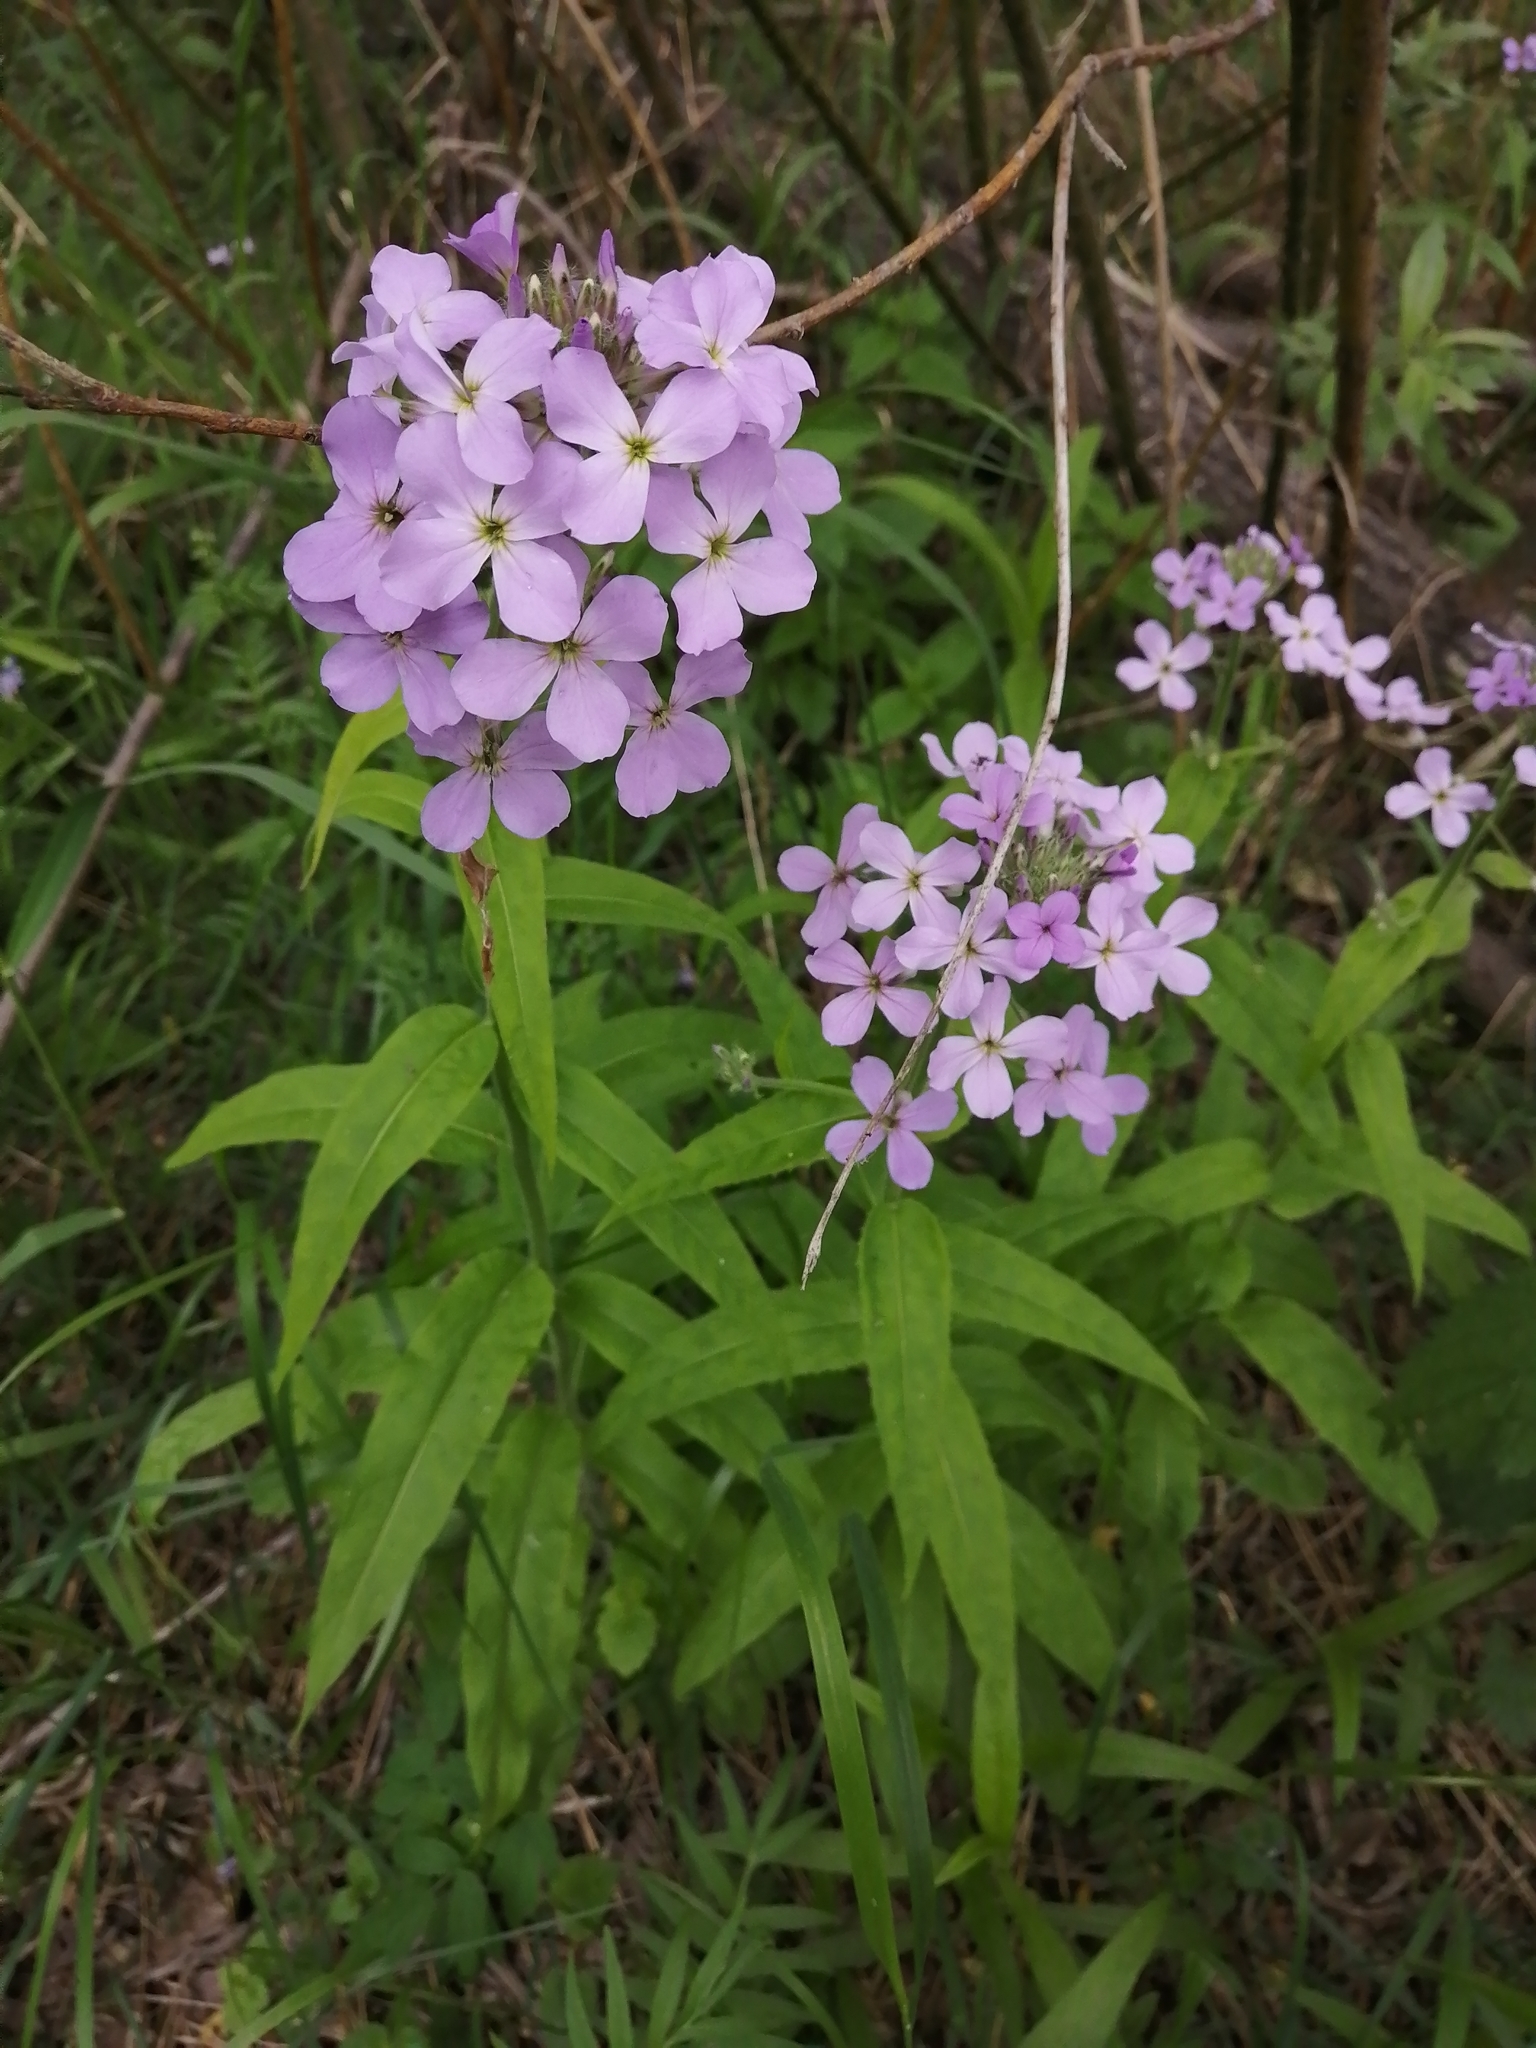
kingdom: Plantae
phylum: Tracheophyta
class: Magnoliopsida
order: Brassicales
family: Brassicaceae
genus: Hesperis
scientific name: Hesperis matronalis
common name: Dame's-violet
